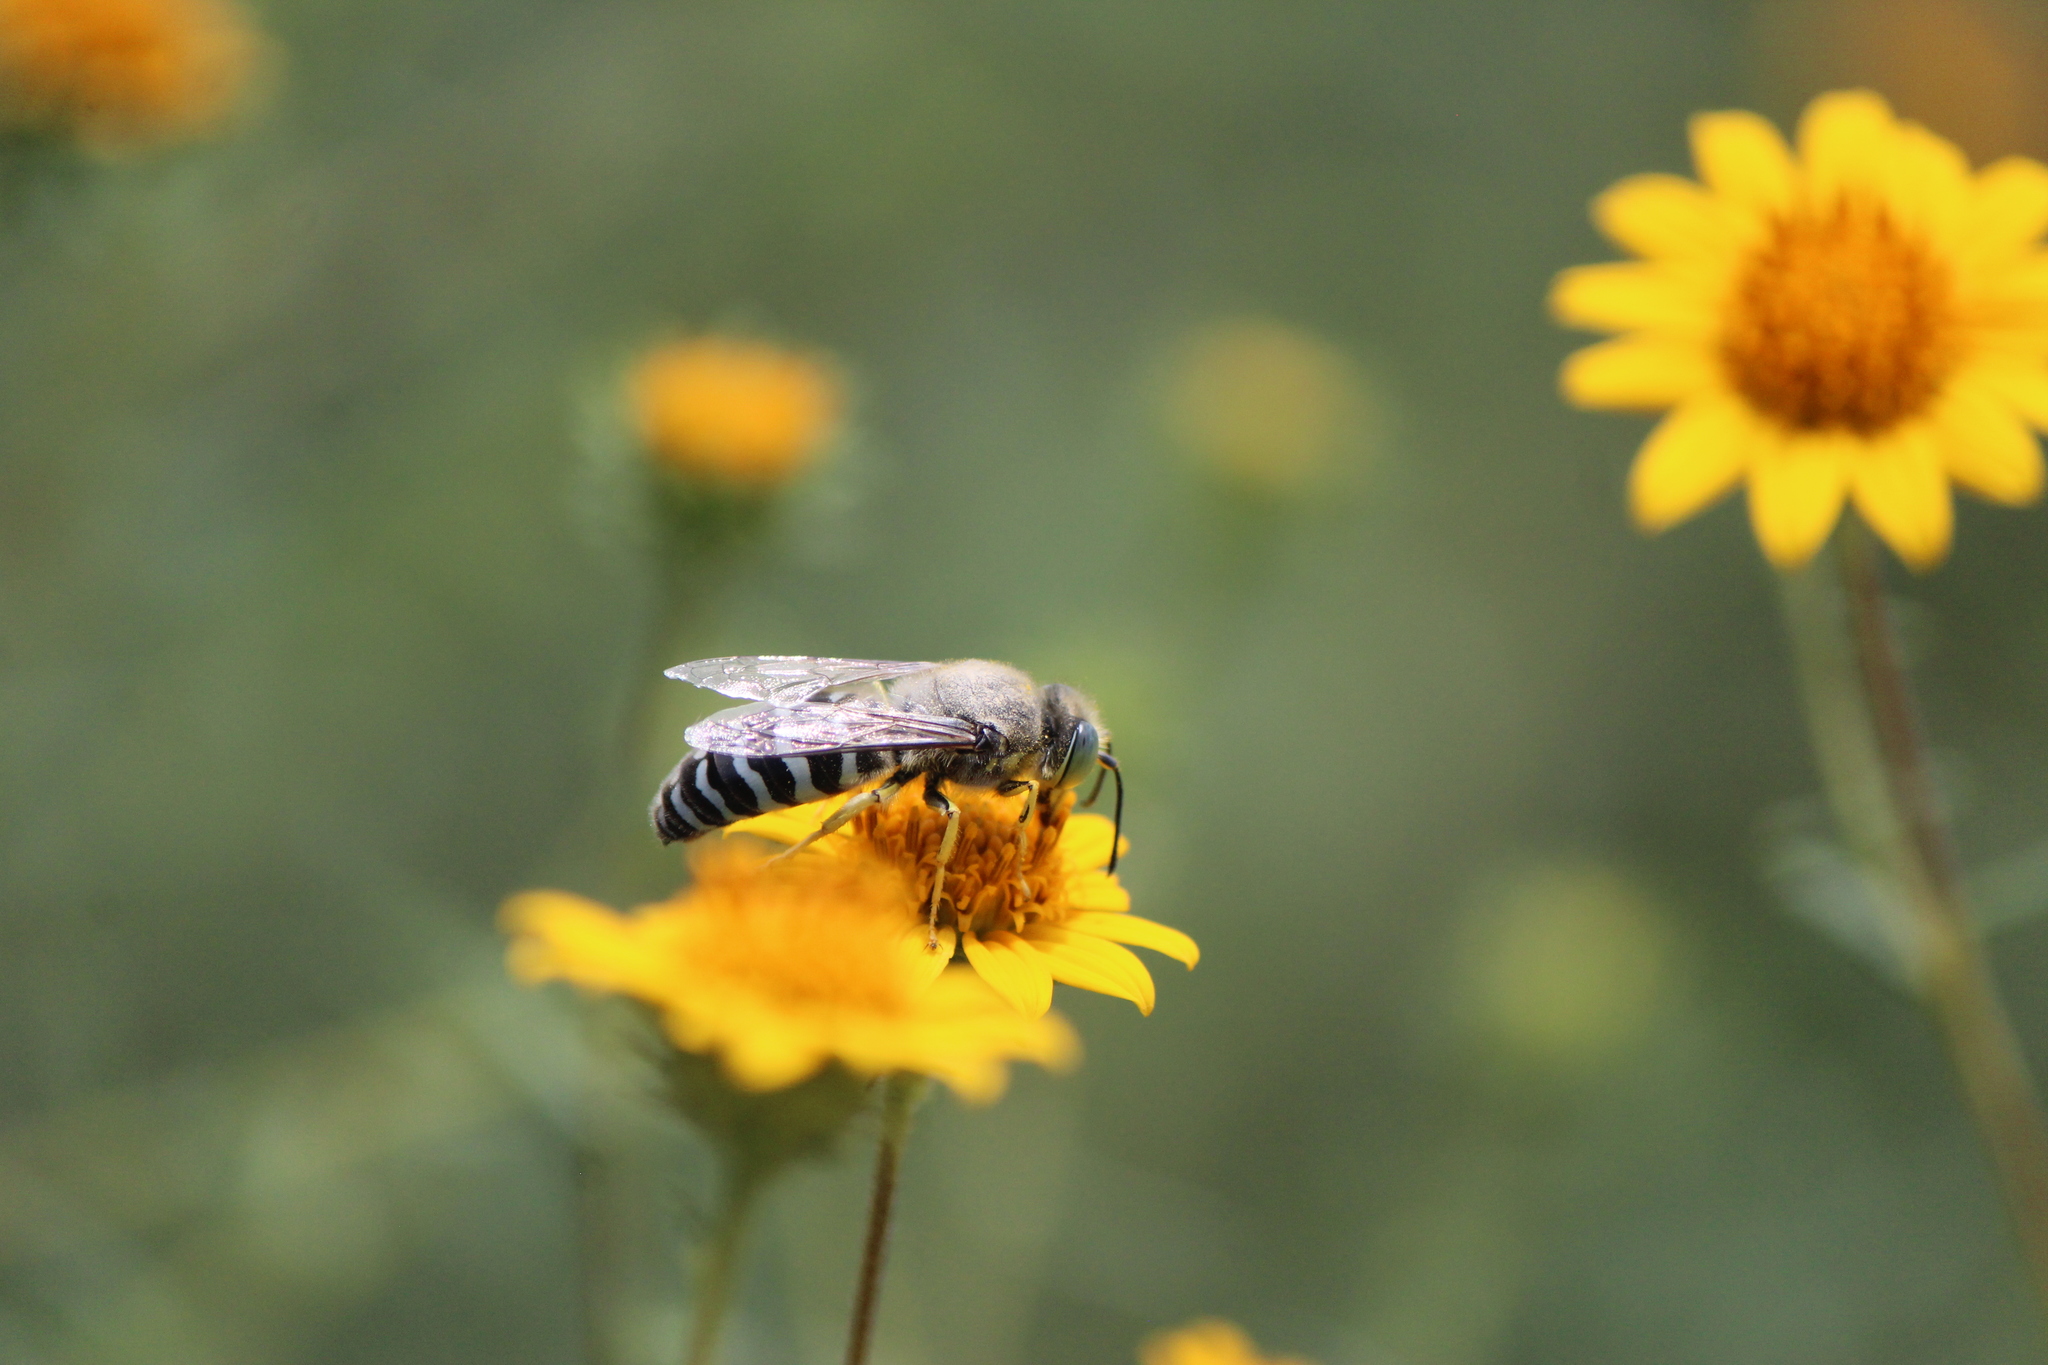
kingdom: Animalia
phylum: Arthropoda
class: Insecta
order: Hymenoptera
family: Crabronidae
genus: Bembix
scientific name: Bembix americana
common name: American sand wasp
